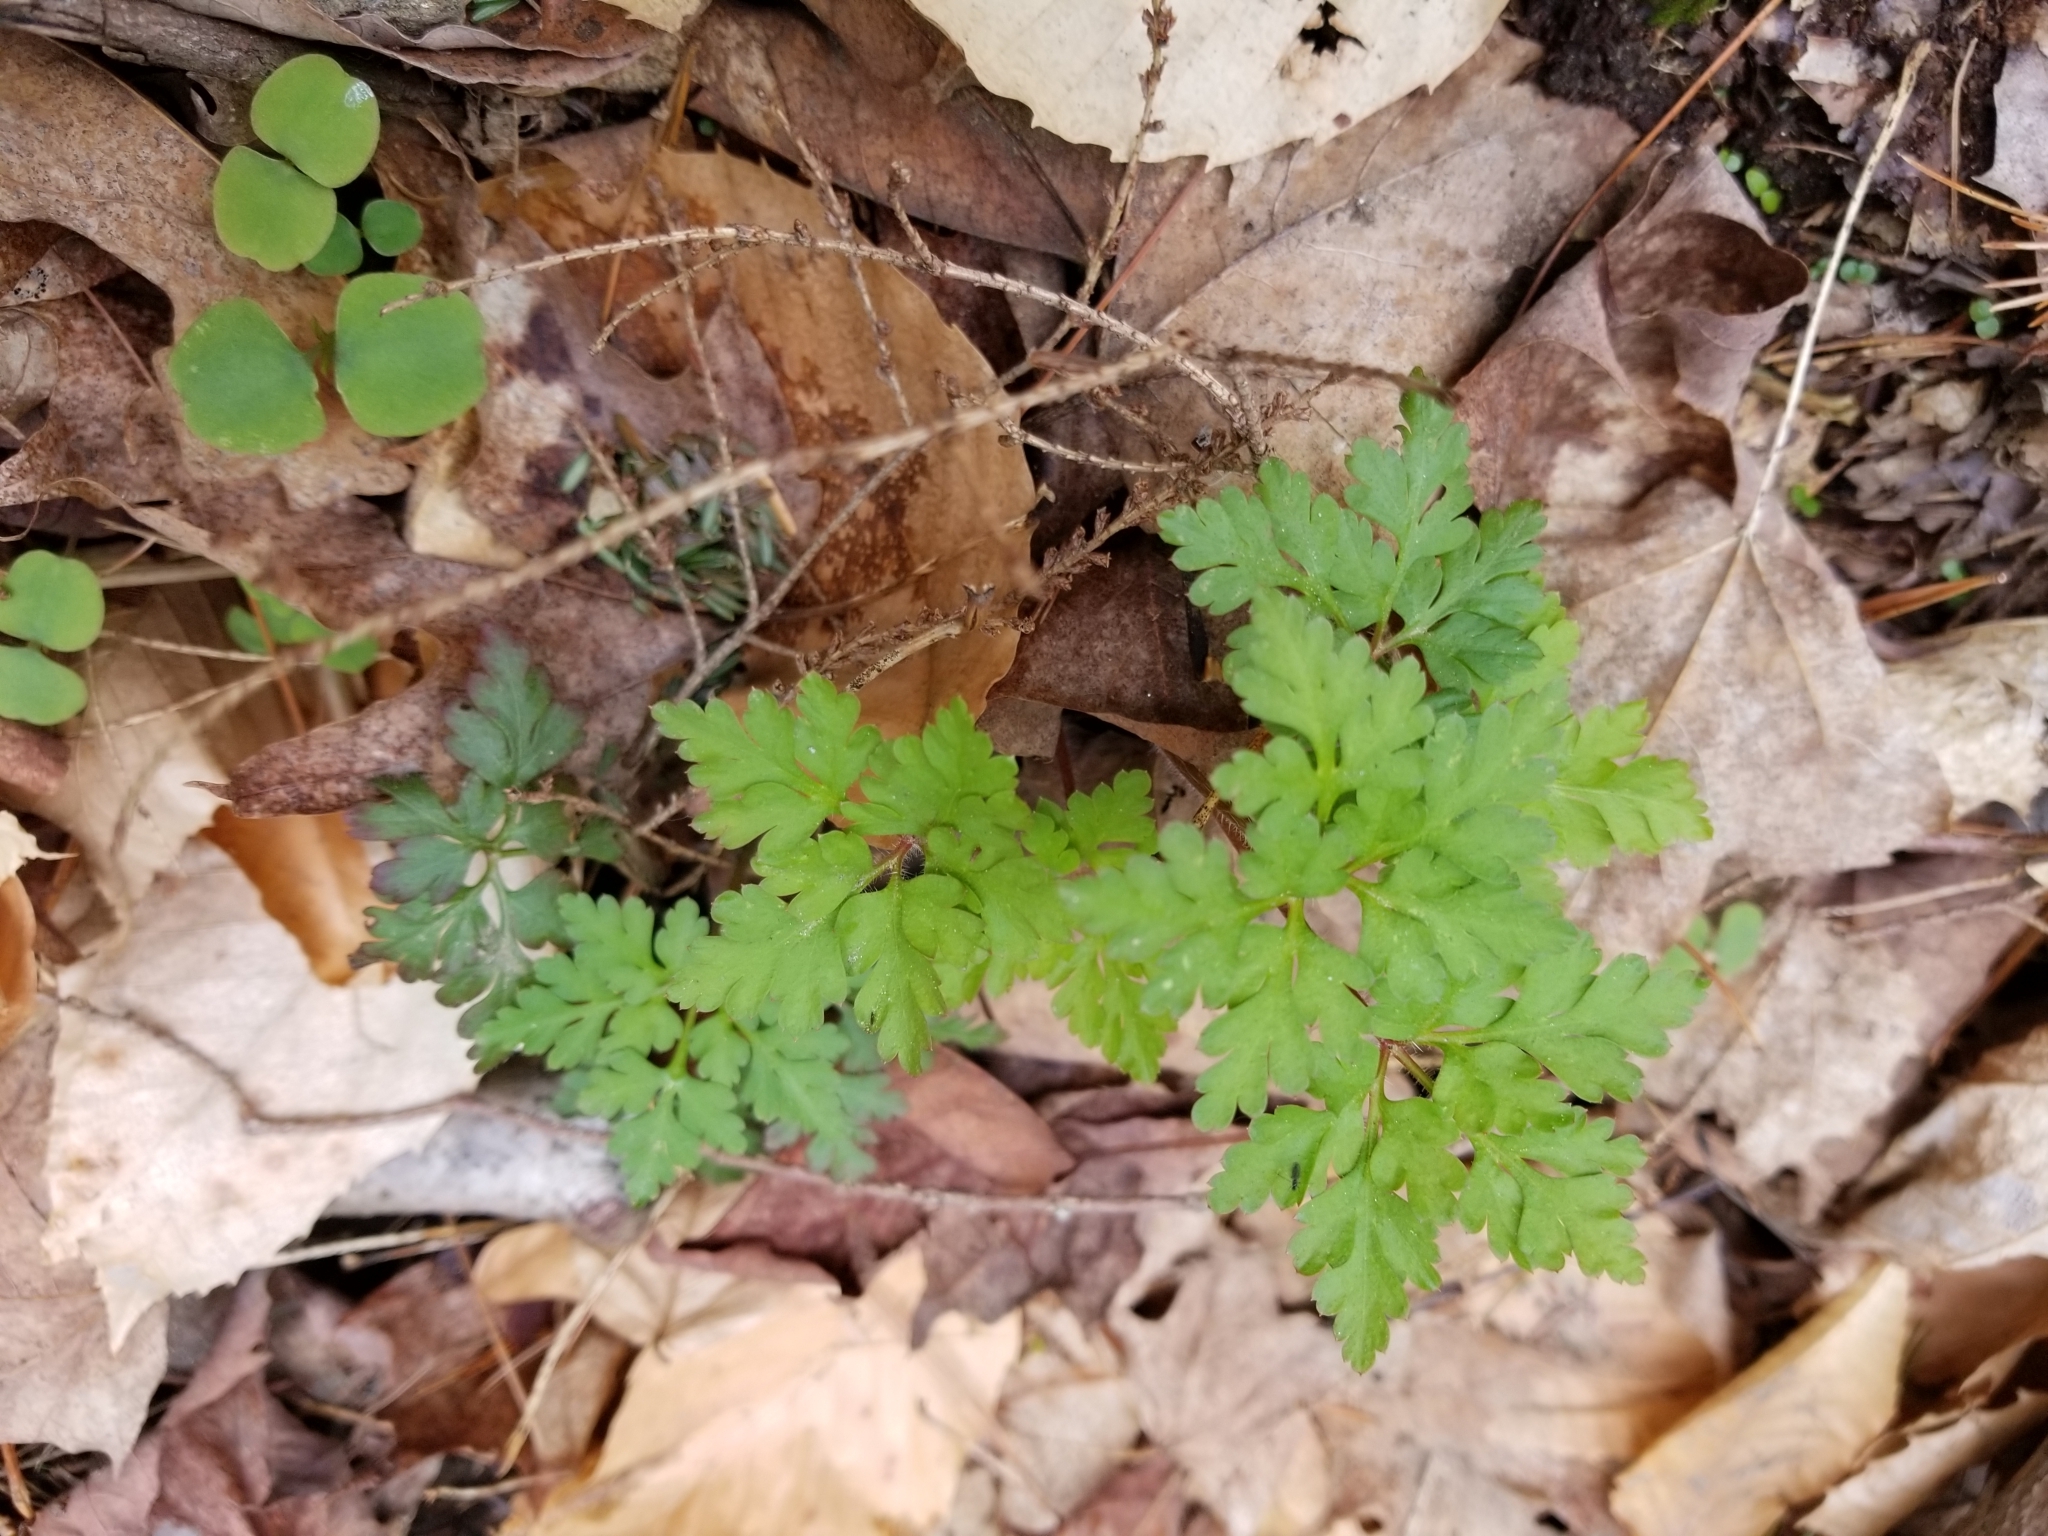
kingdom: Plantae
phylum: Tracheophyta
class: Magnoliopsida
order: Geraniales
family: Geraniaceae
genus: Geranium
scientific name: Geranium robertianum
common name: Herb-robert
